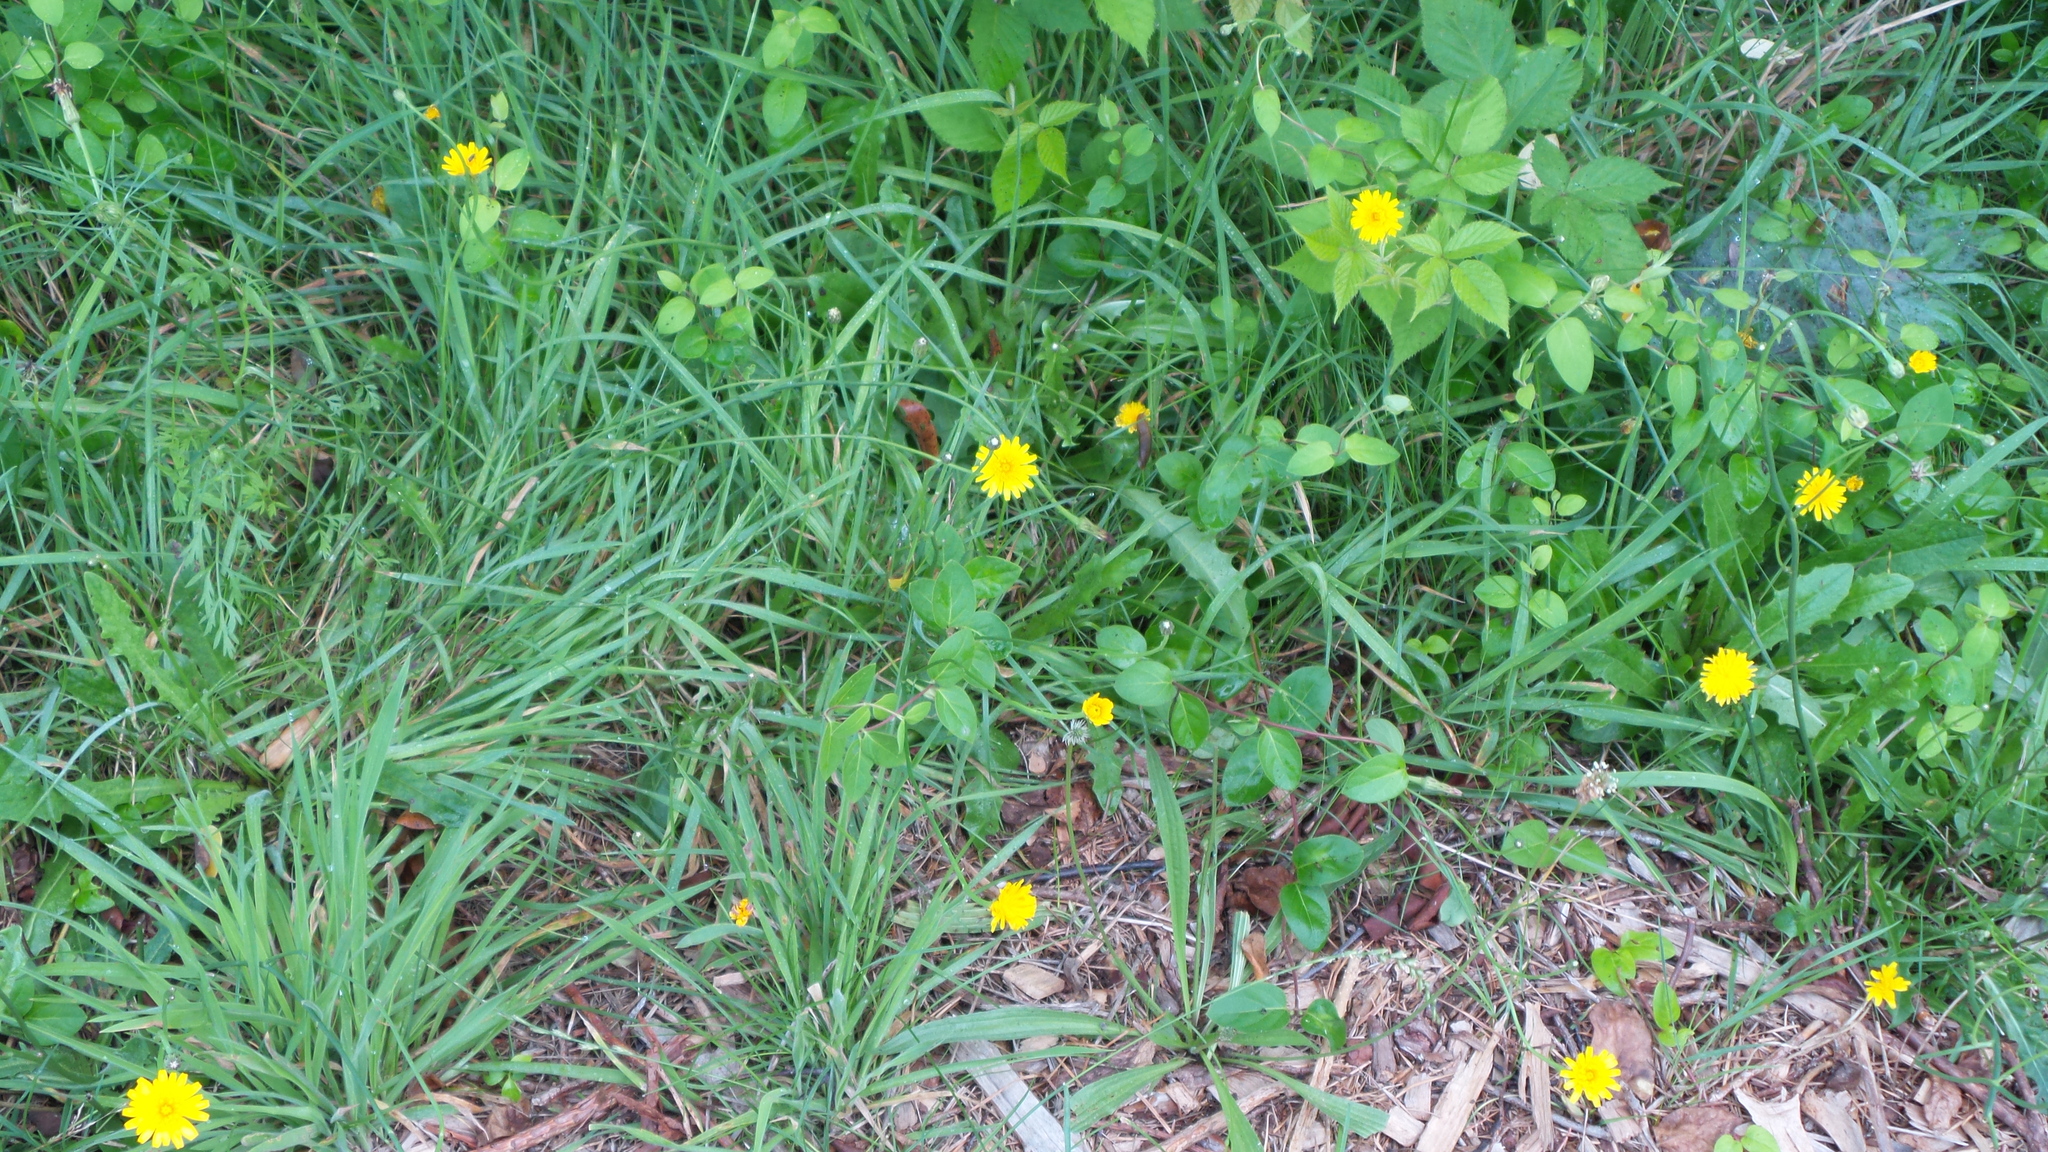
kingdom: Plantae
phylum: Tracheophyta
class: Magnoliopsida
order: Asterales
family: Asteraceae
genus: Hypochaeris
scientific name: Hypochaeris radicata
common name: Flatweed
